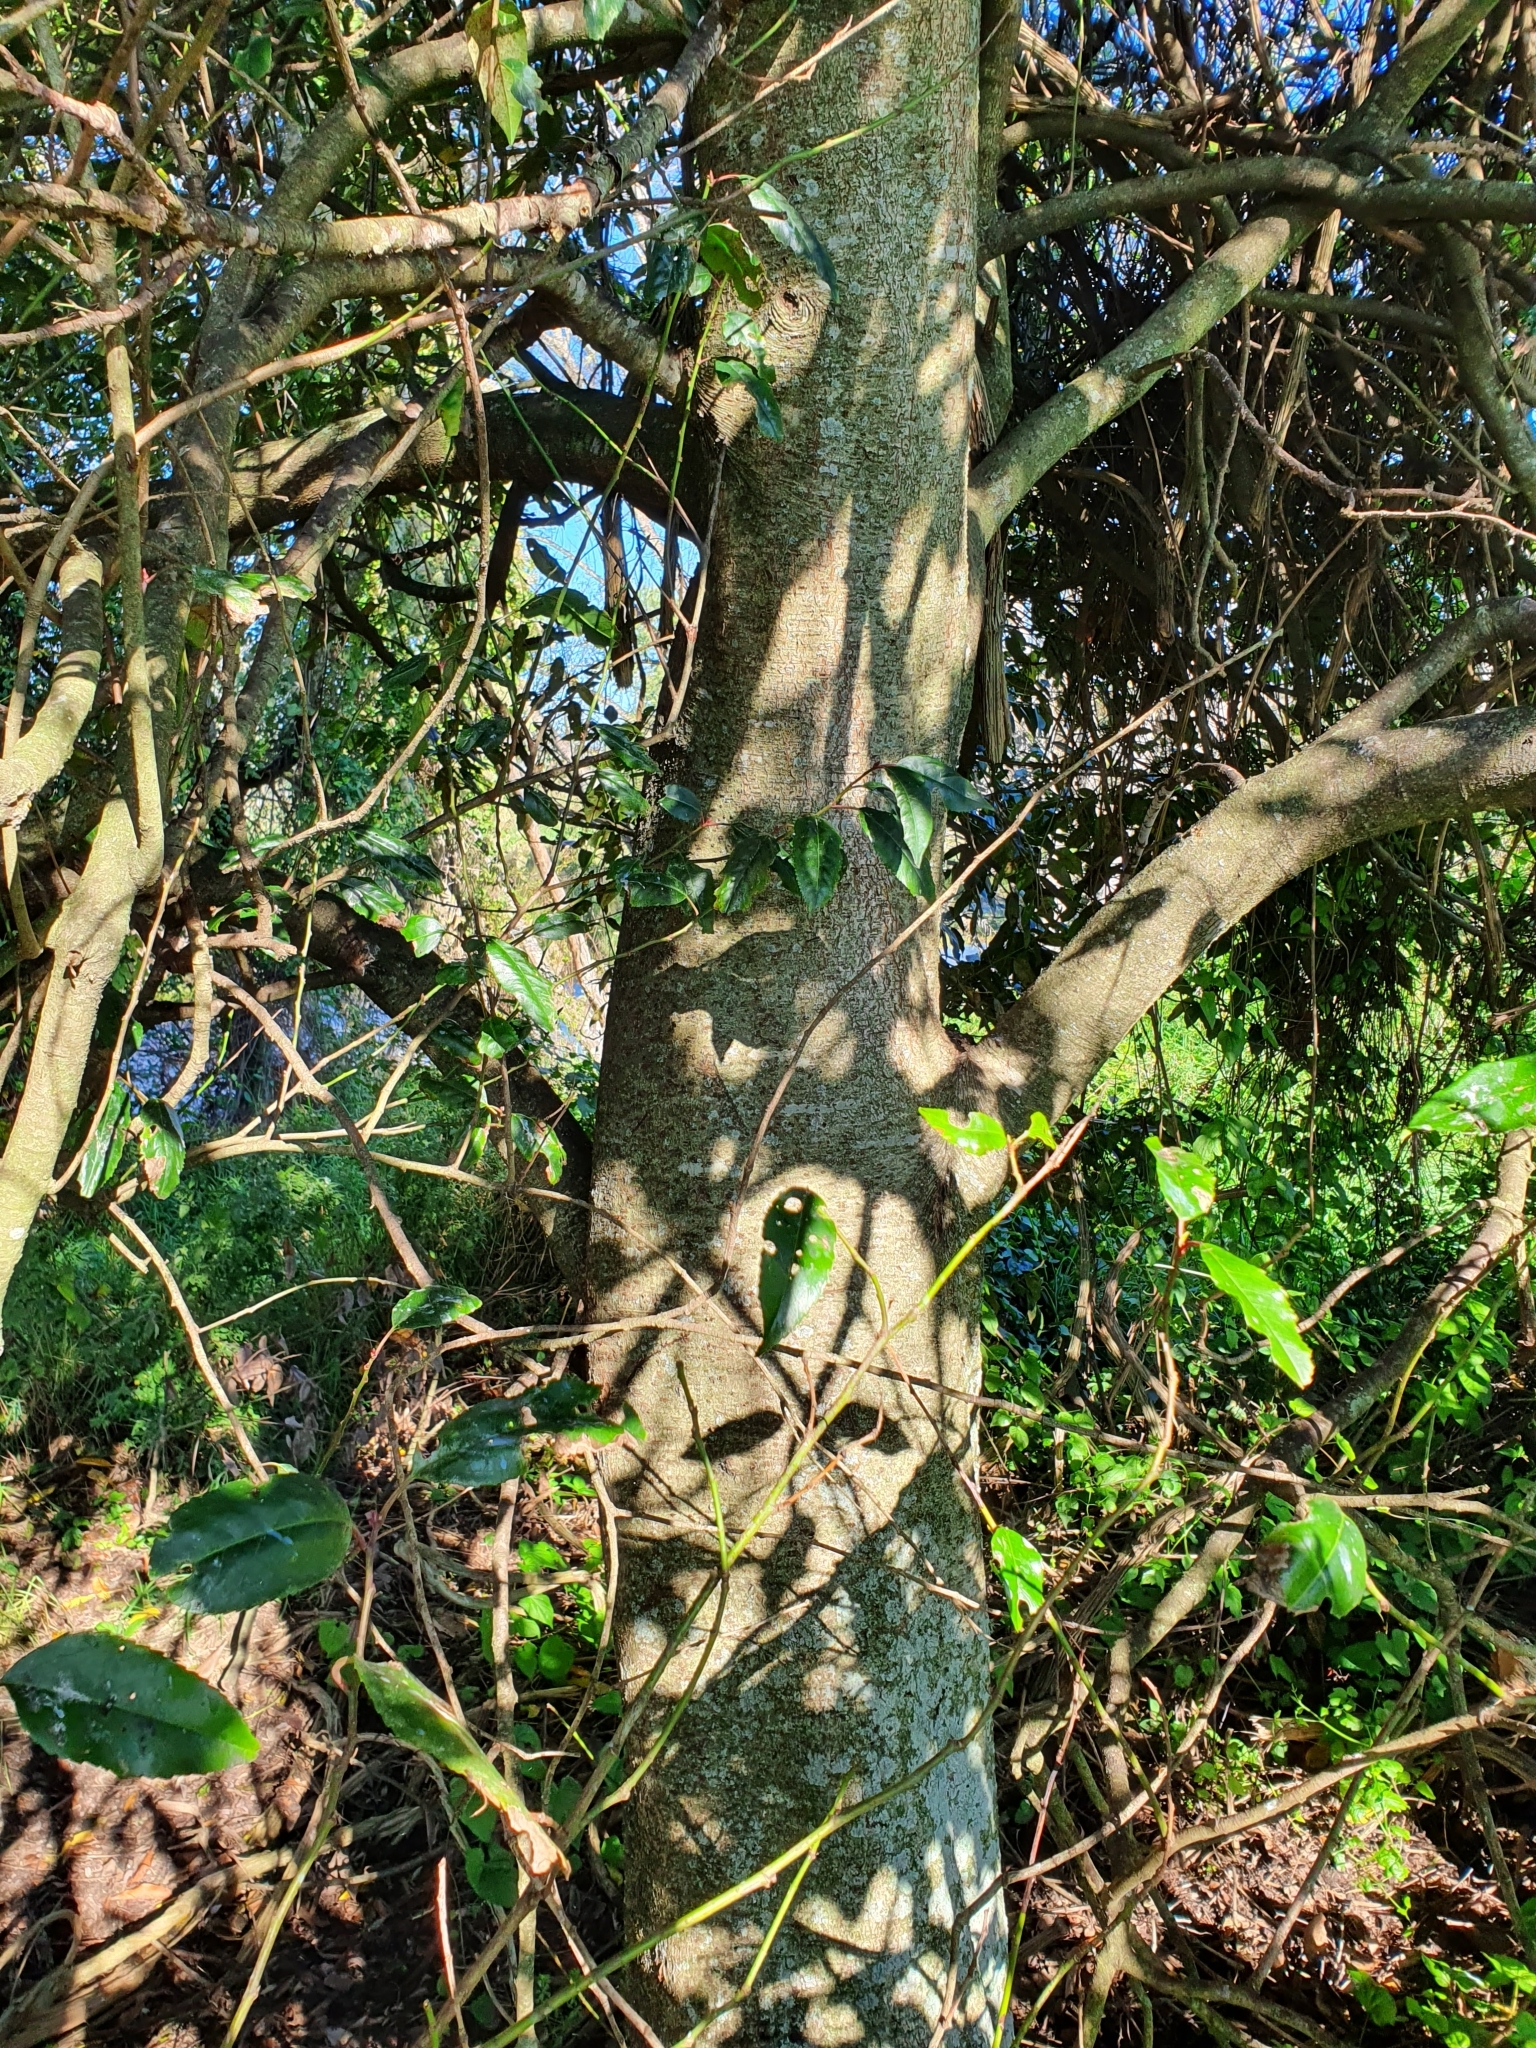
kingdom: Plantae
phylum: Tracheophyta
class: Magnoliopsida
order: Rosales
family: Rosaceae
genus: Prunus
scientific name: Prunus lusitanica
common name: Portugal laurel
